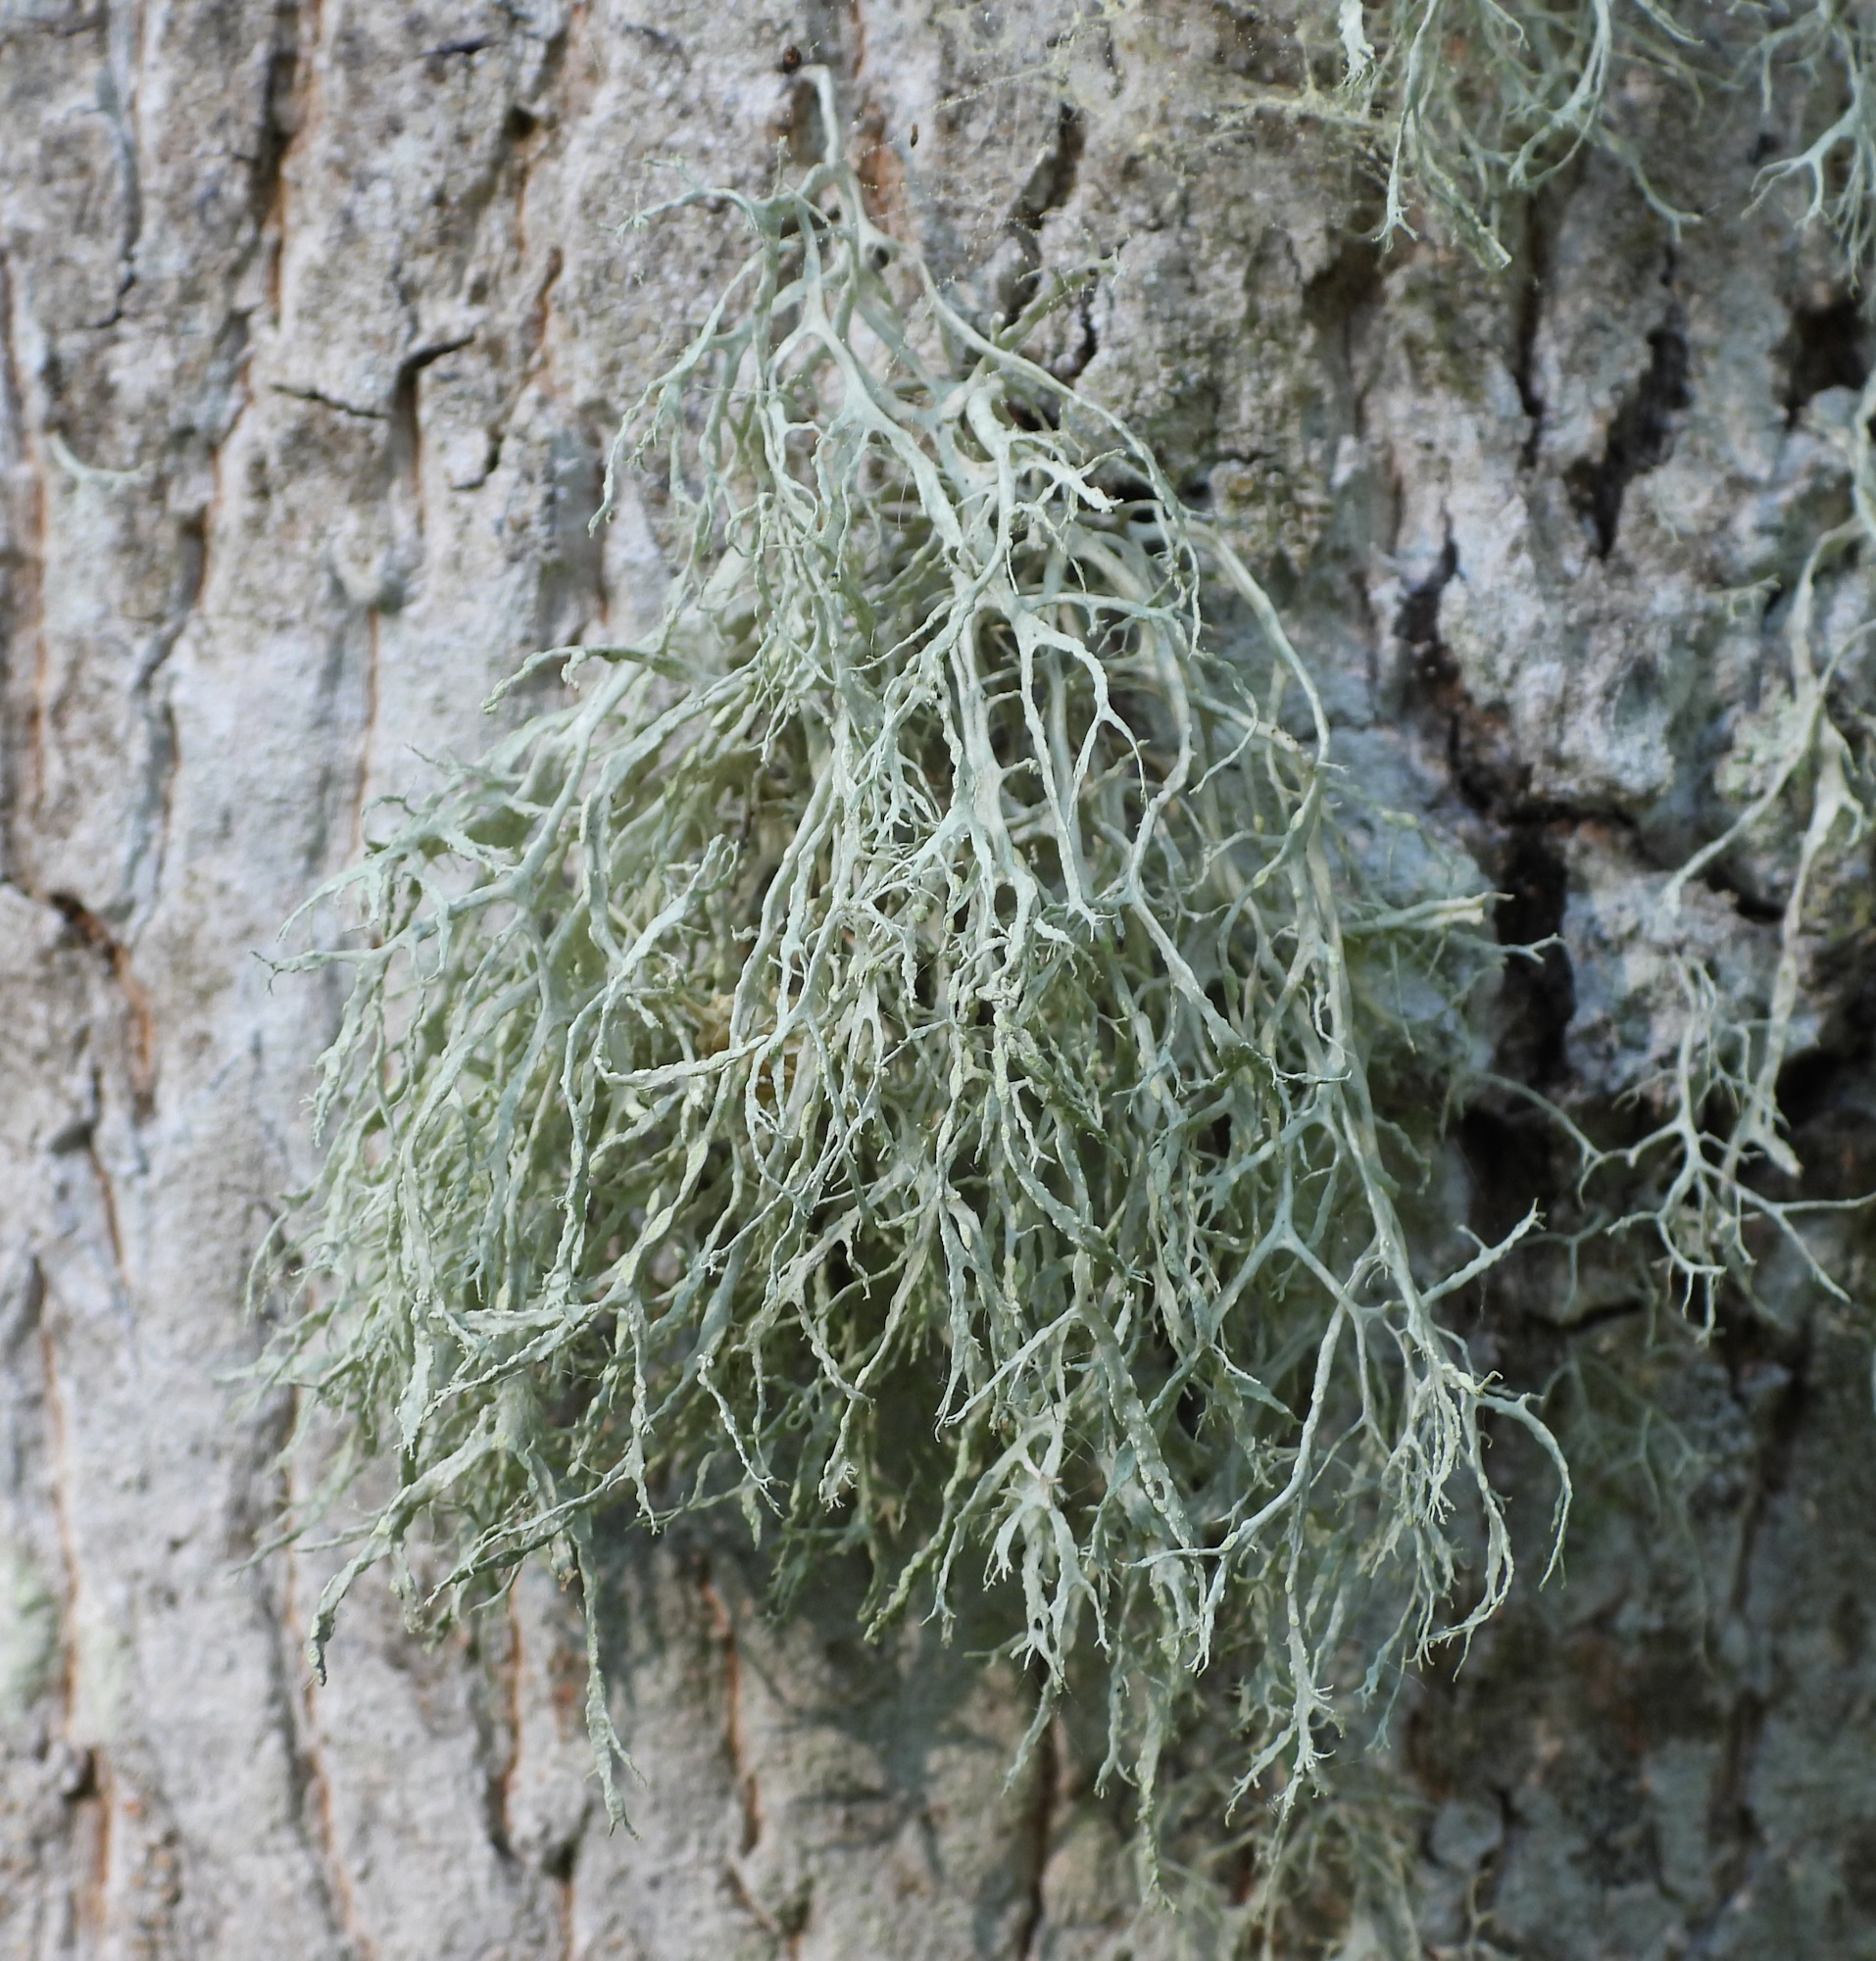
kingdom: Fungi
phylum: Ascomycota
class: Lecanoromycetes
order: Lecanorales
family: Ramalinaceae
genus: Ramalina
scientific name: Ramalina farinacea
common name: Farinose cartilage lichen
